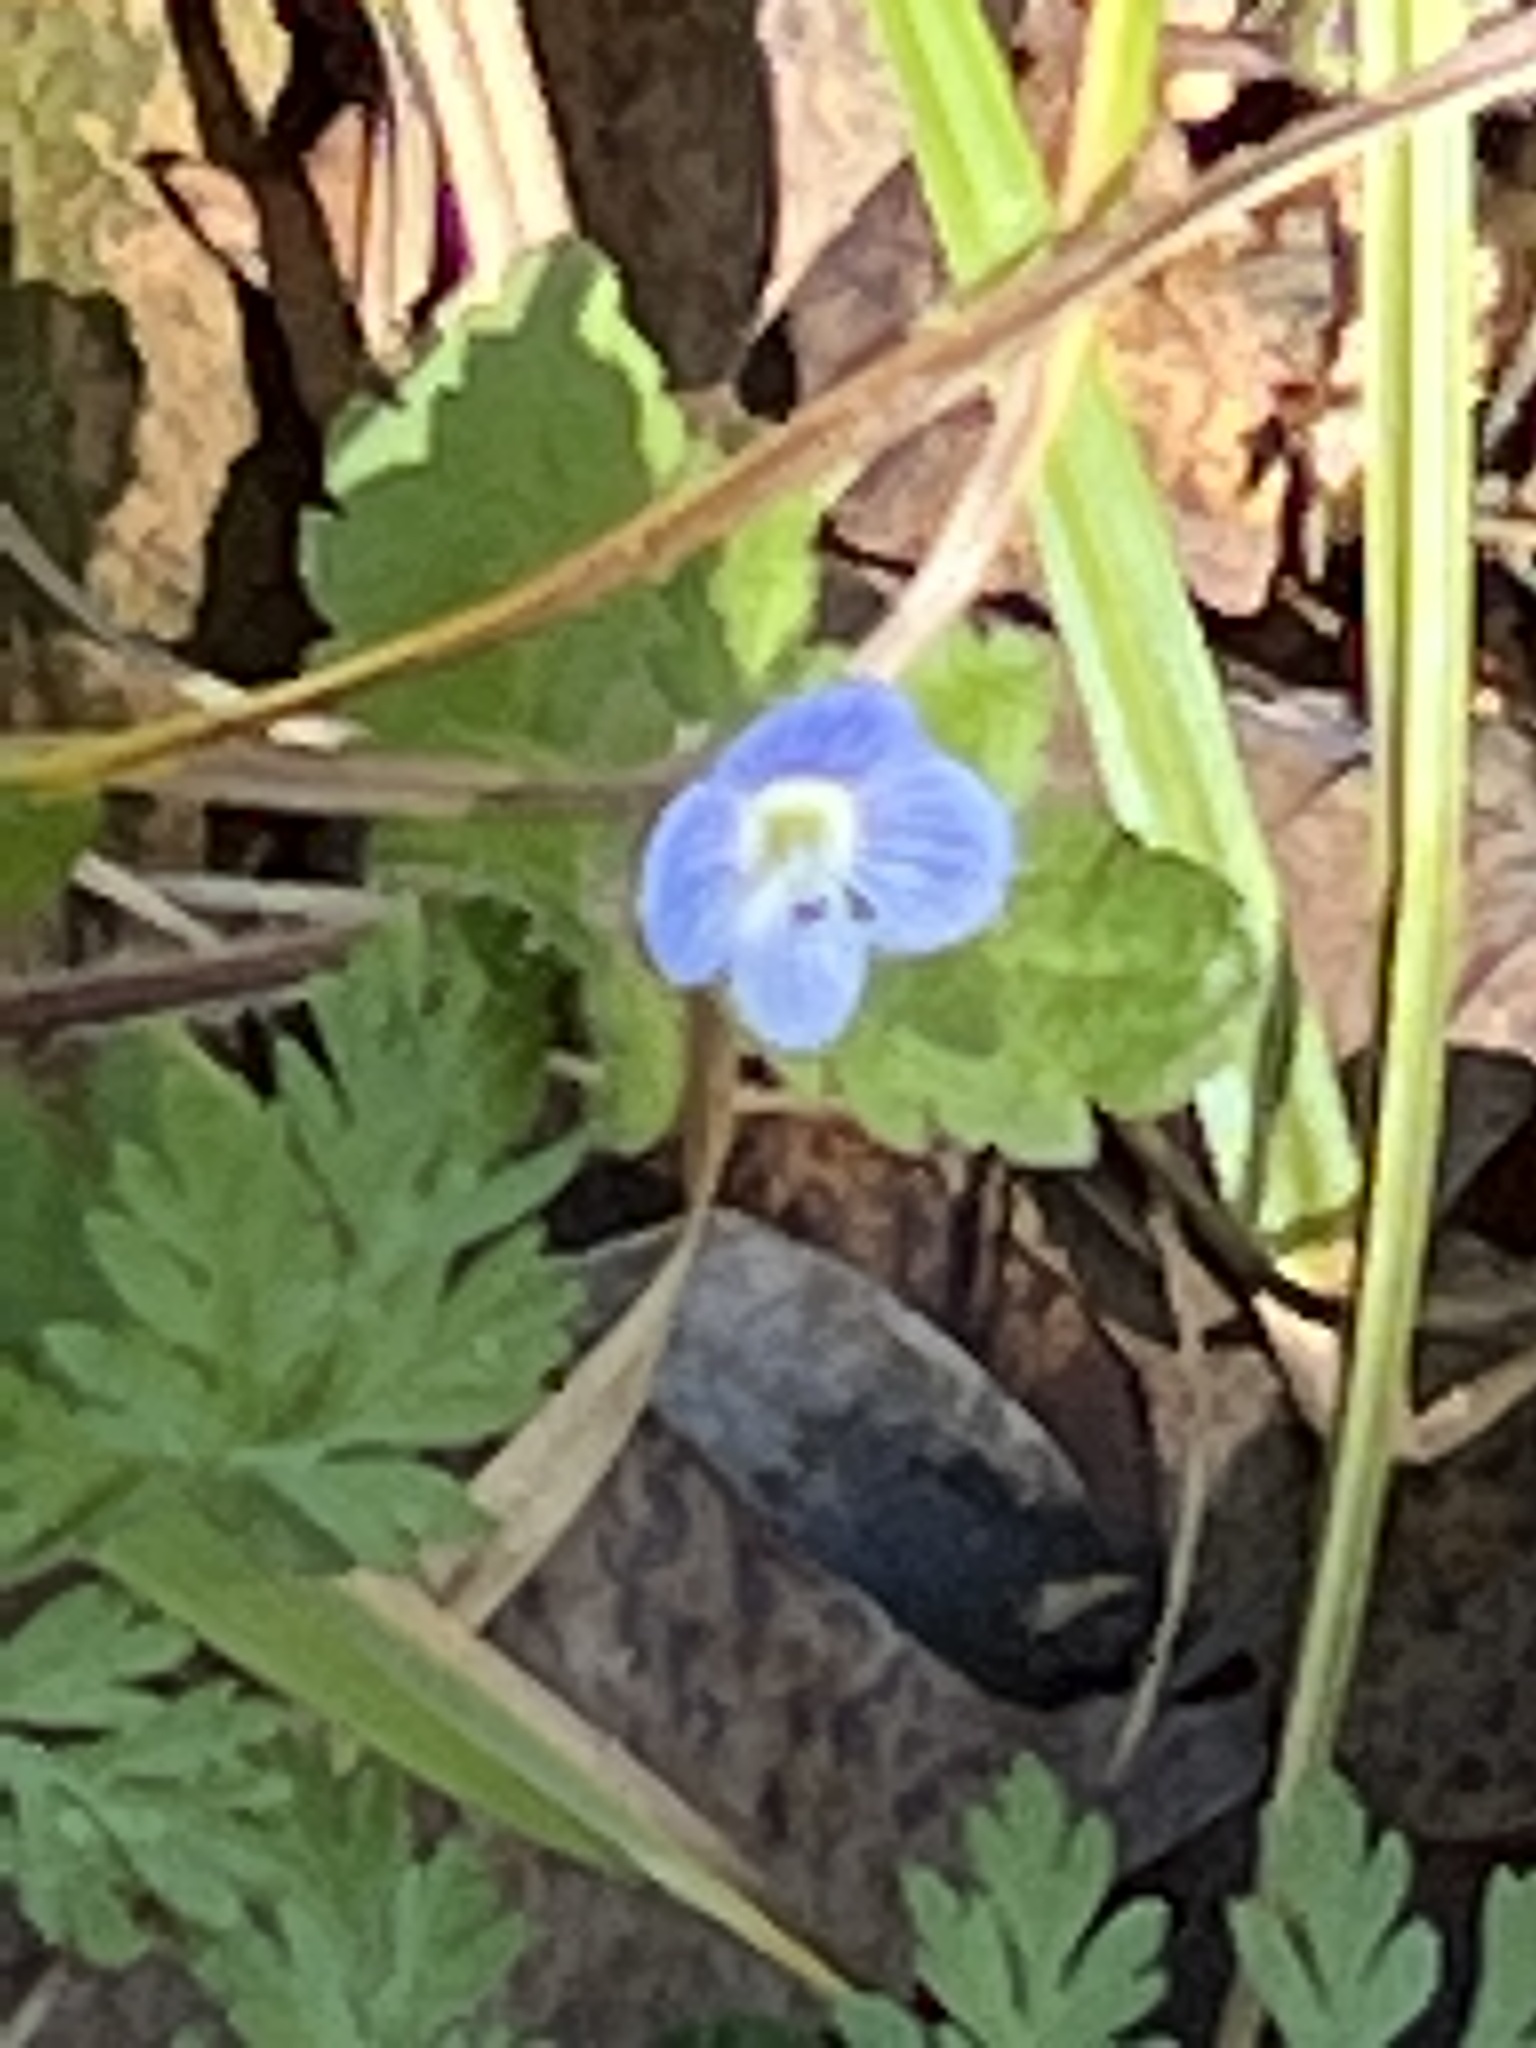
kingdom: Plantae
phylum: Tracheophyta
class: Magnoliopsida
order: Lamiales
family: Plantaginaceae
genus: Veronica
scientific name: Veronica persica
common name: Common field-speedwell
